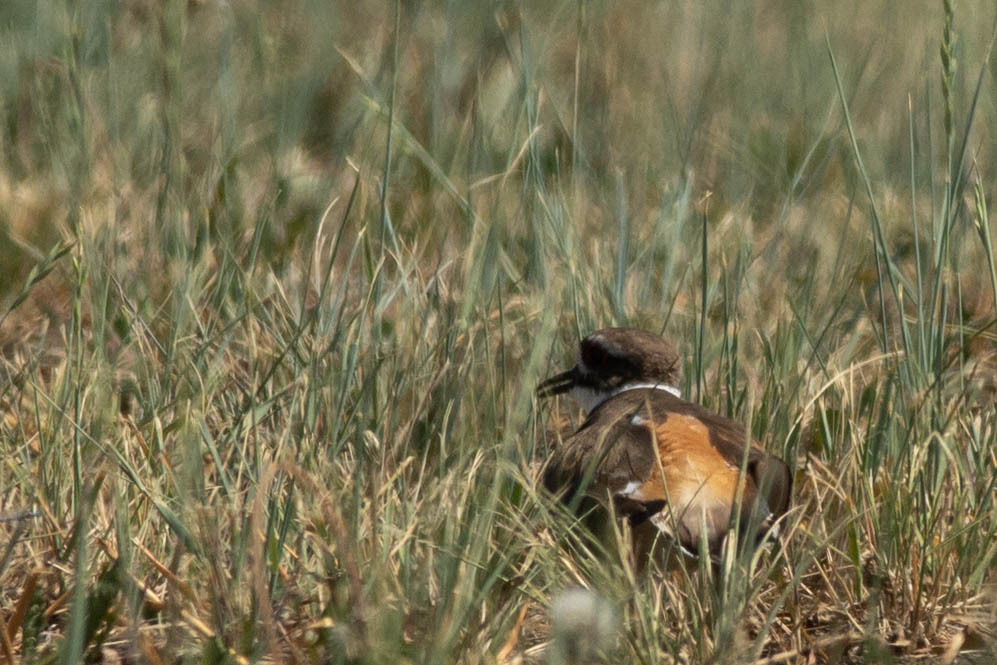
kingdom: Animalia
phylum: Chordata
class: Aves
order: Charadriiformes
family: Charadriidae
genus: Charadrius
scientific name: Charadrius vociferus
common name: Killdeer
